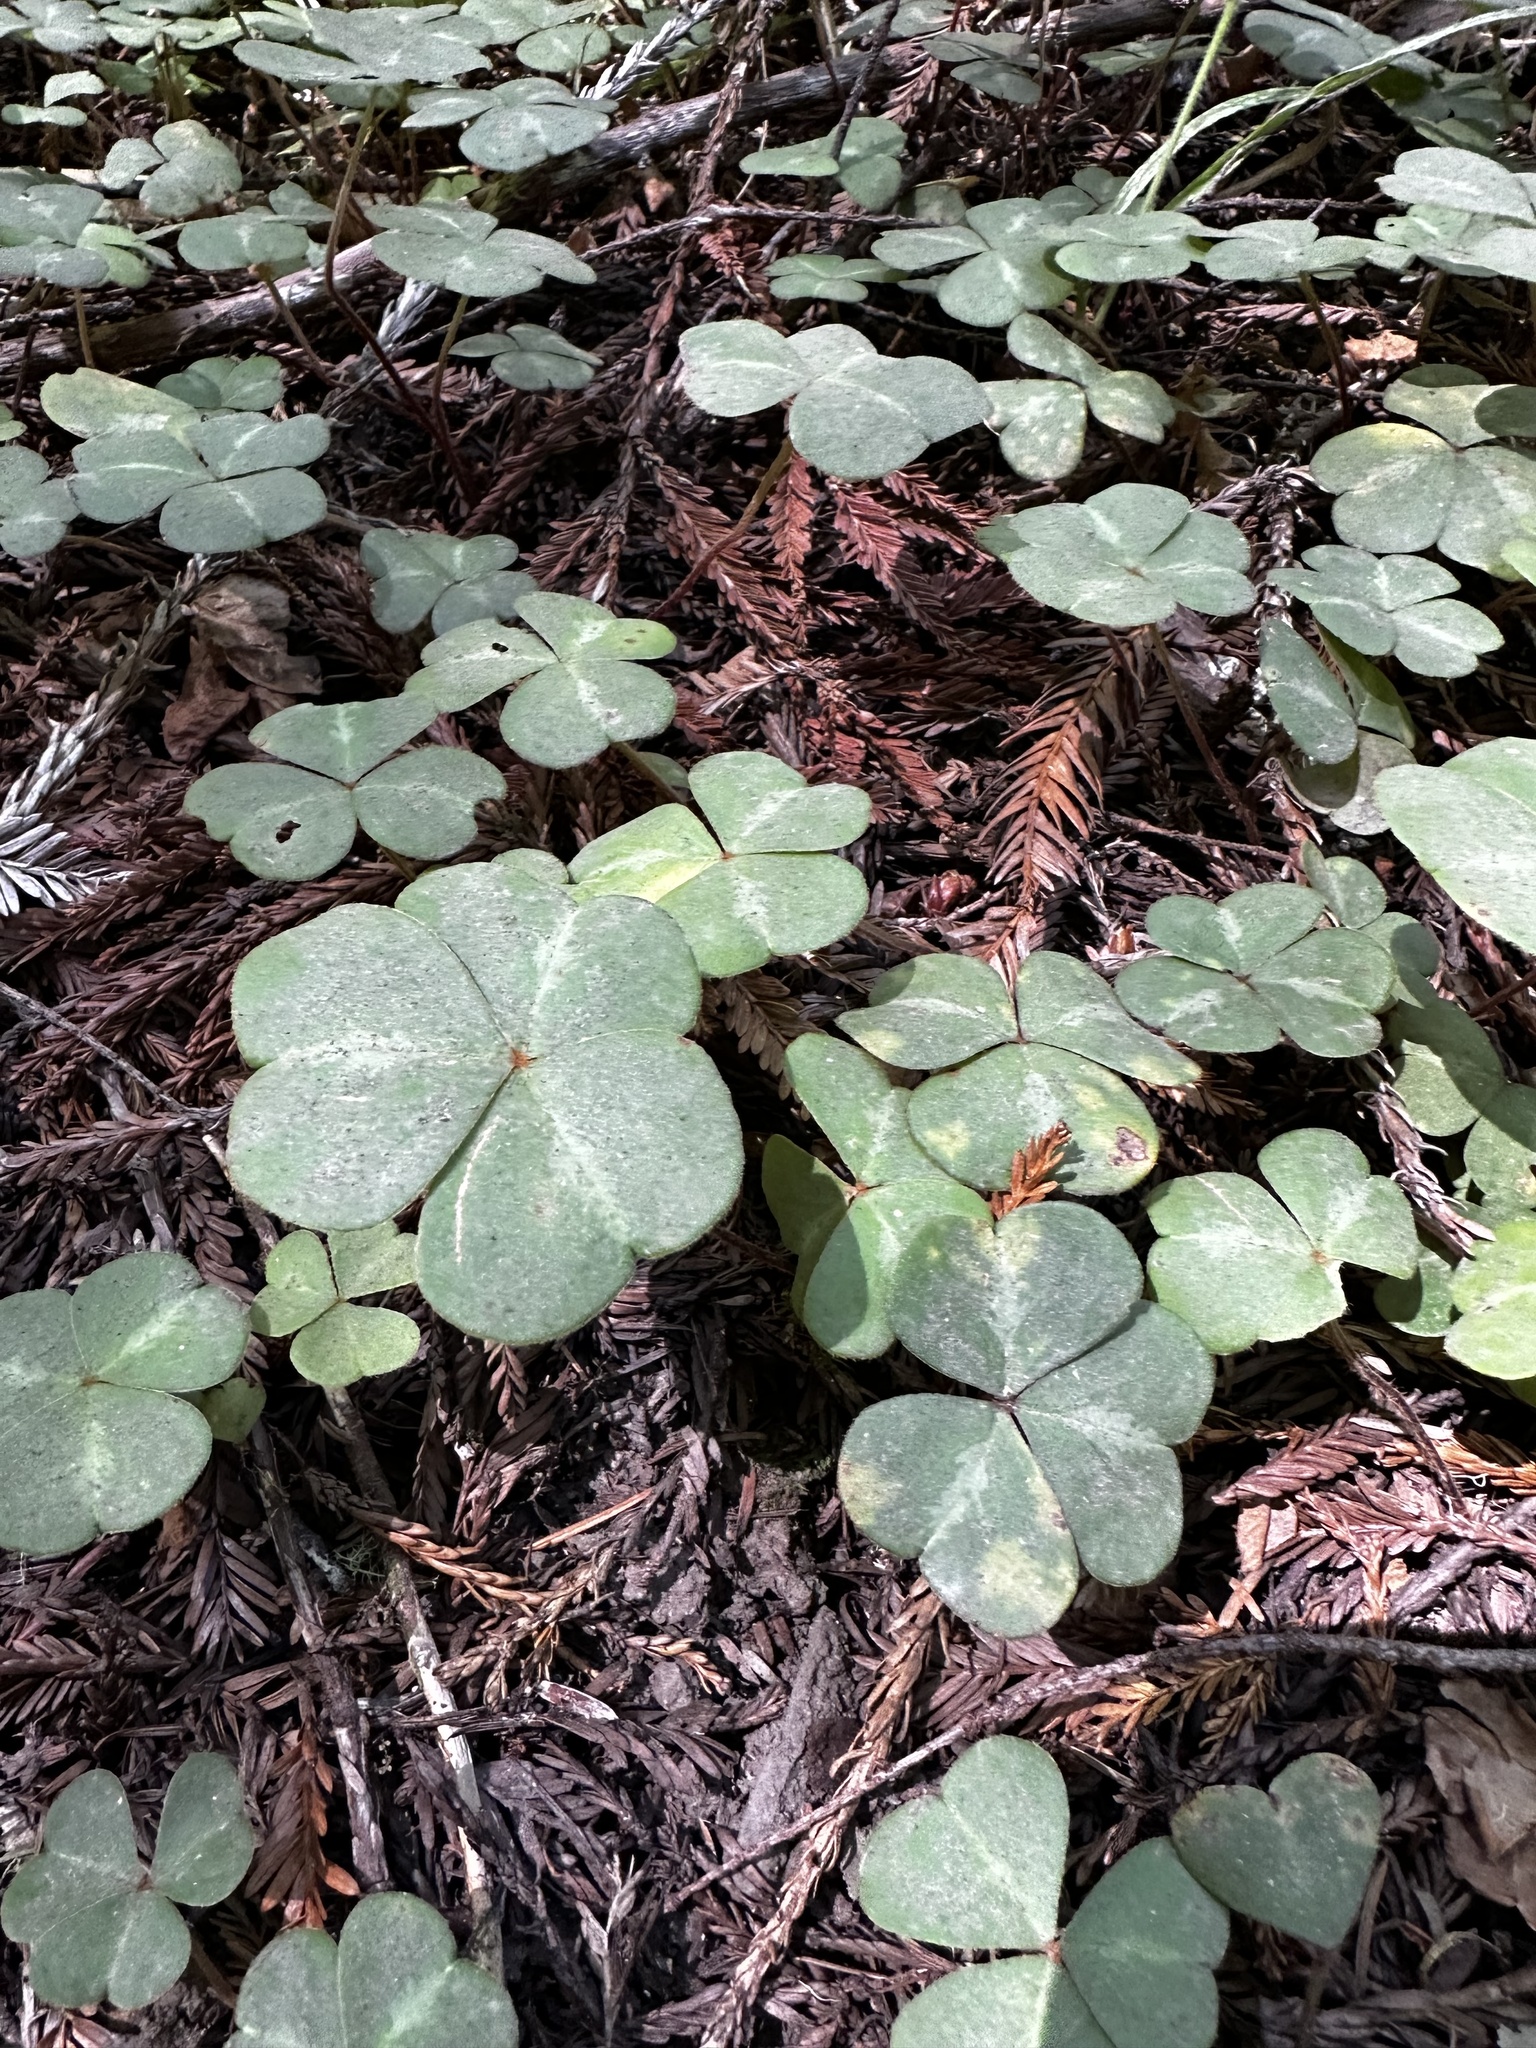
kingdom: Plantae
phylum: Tracheophyta
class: Magnoliopsida
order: Oxalidales
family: Oxalidaceae
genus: Oxalis
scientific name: Oxalis oregana
